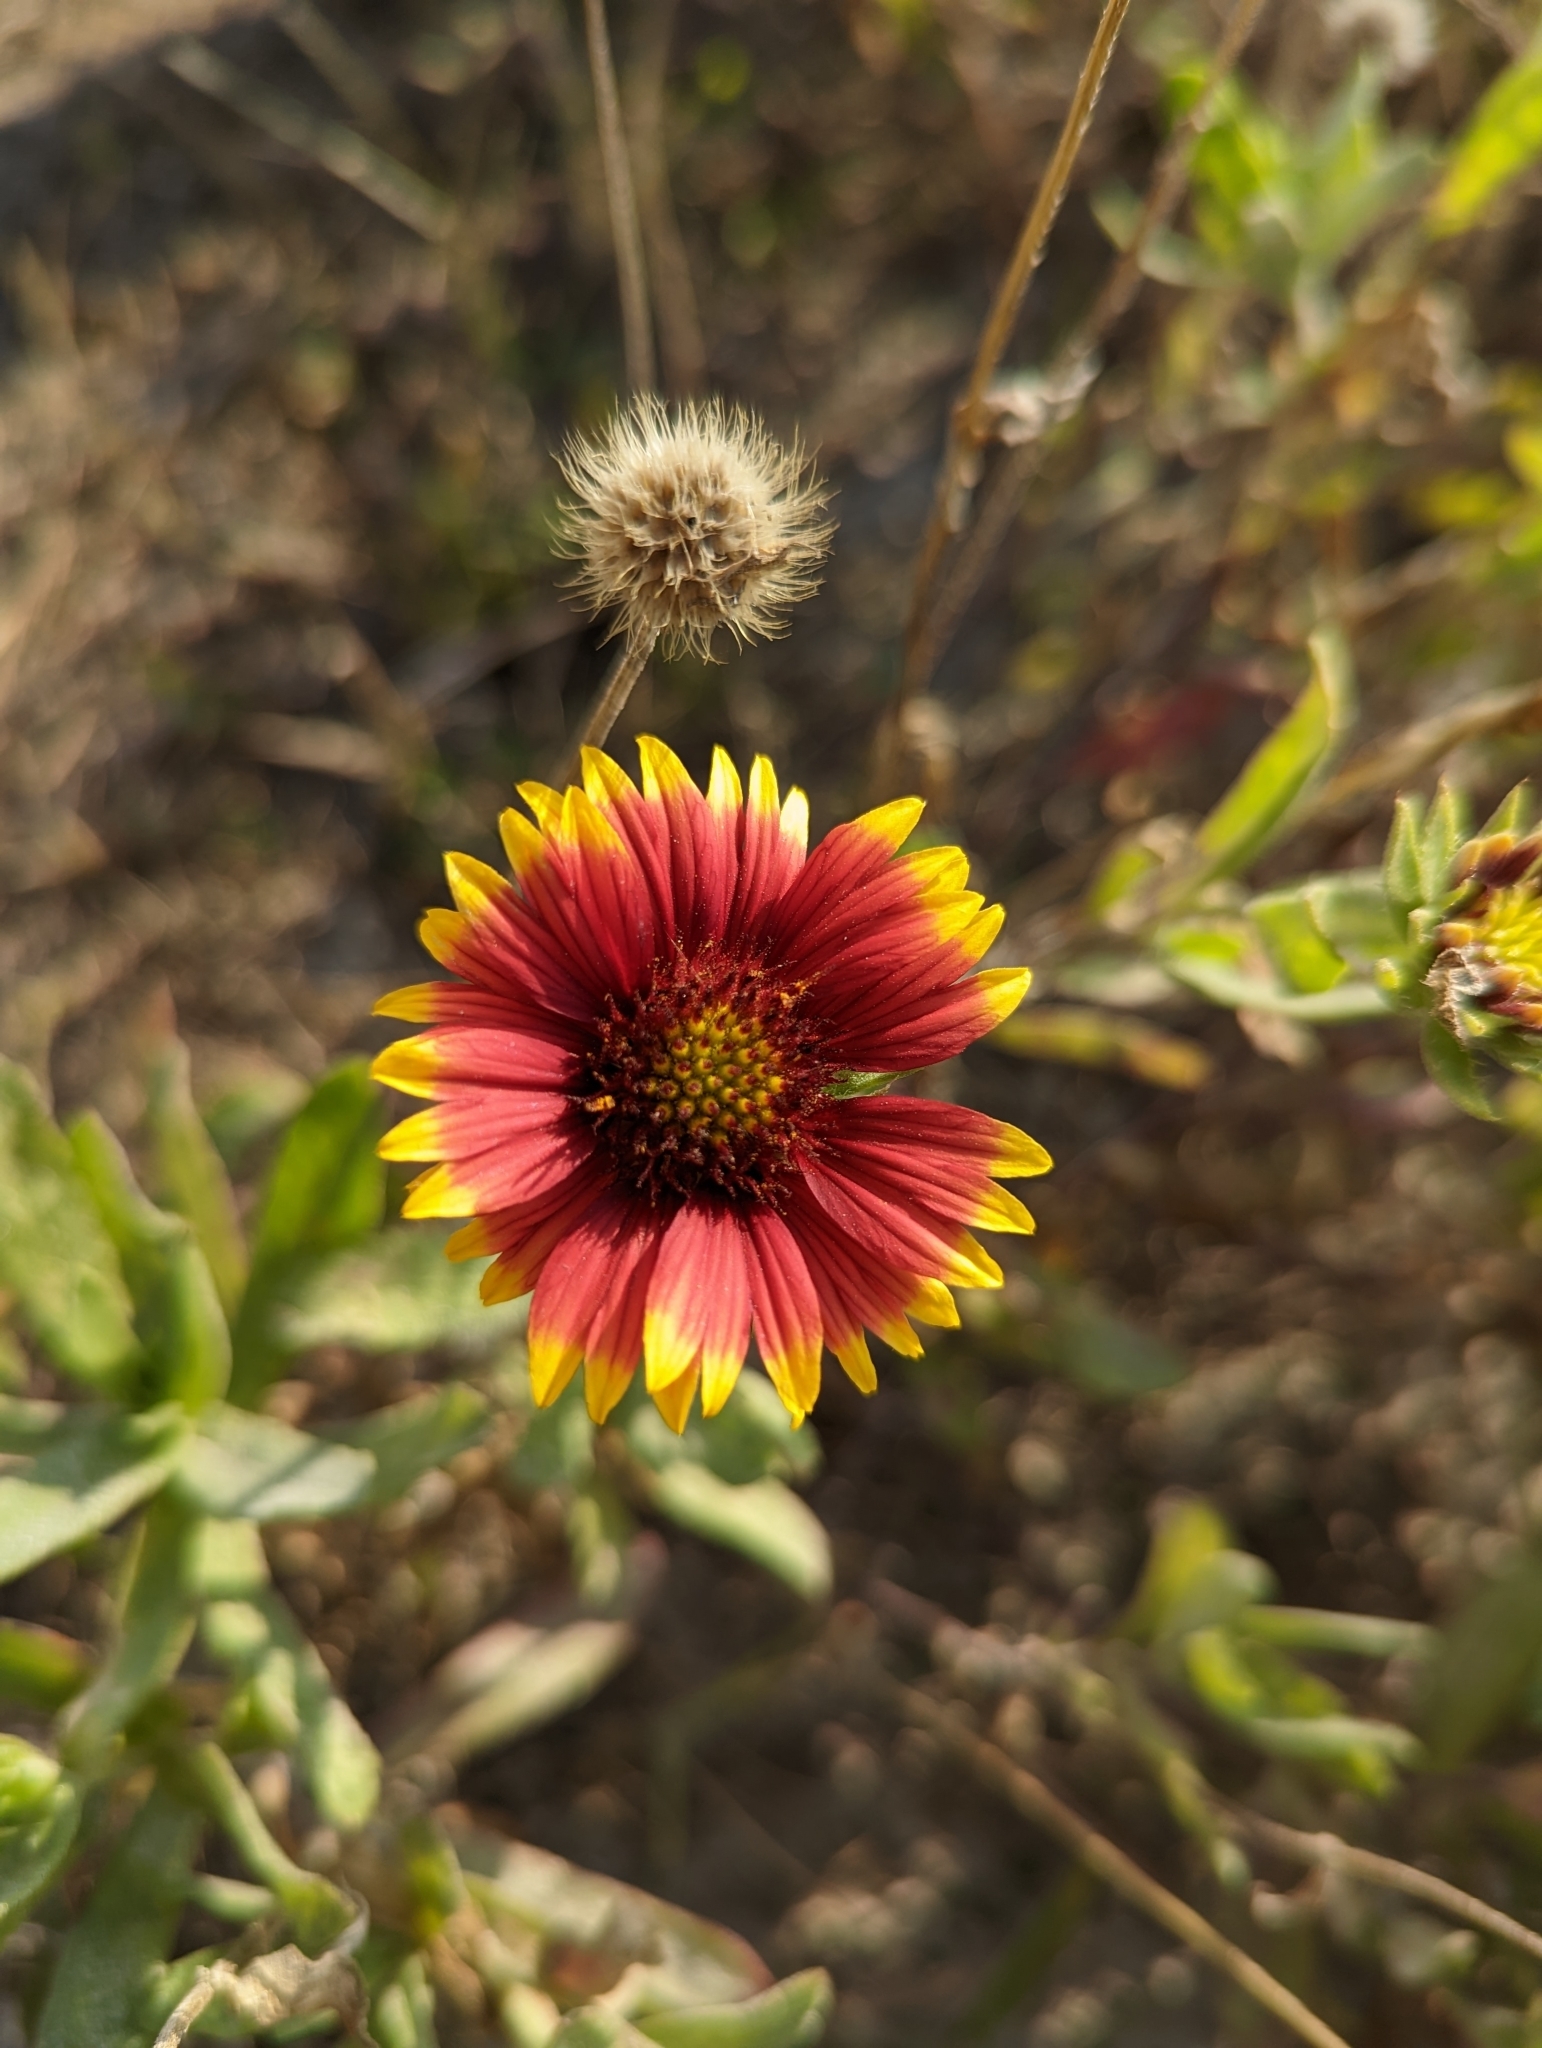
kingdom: Plantae
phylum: Tracheophyta
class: Magnoliopsida
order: Asterales
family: Asteraceae
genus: Gaillardia
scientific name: Gaillardia pulchella
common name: Firewheel
